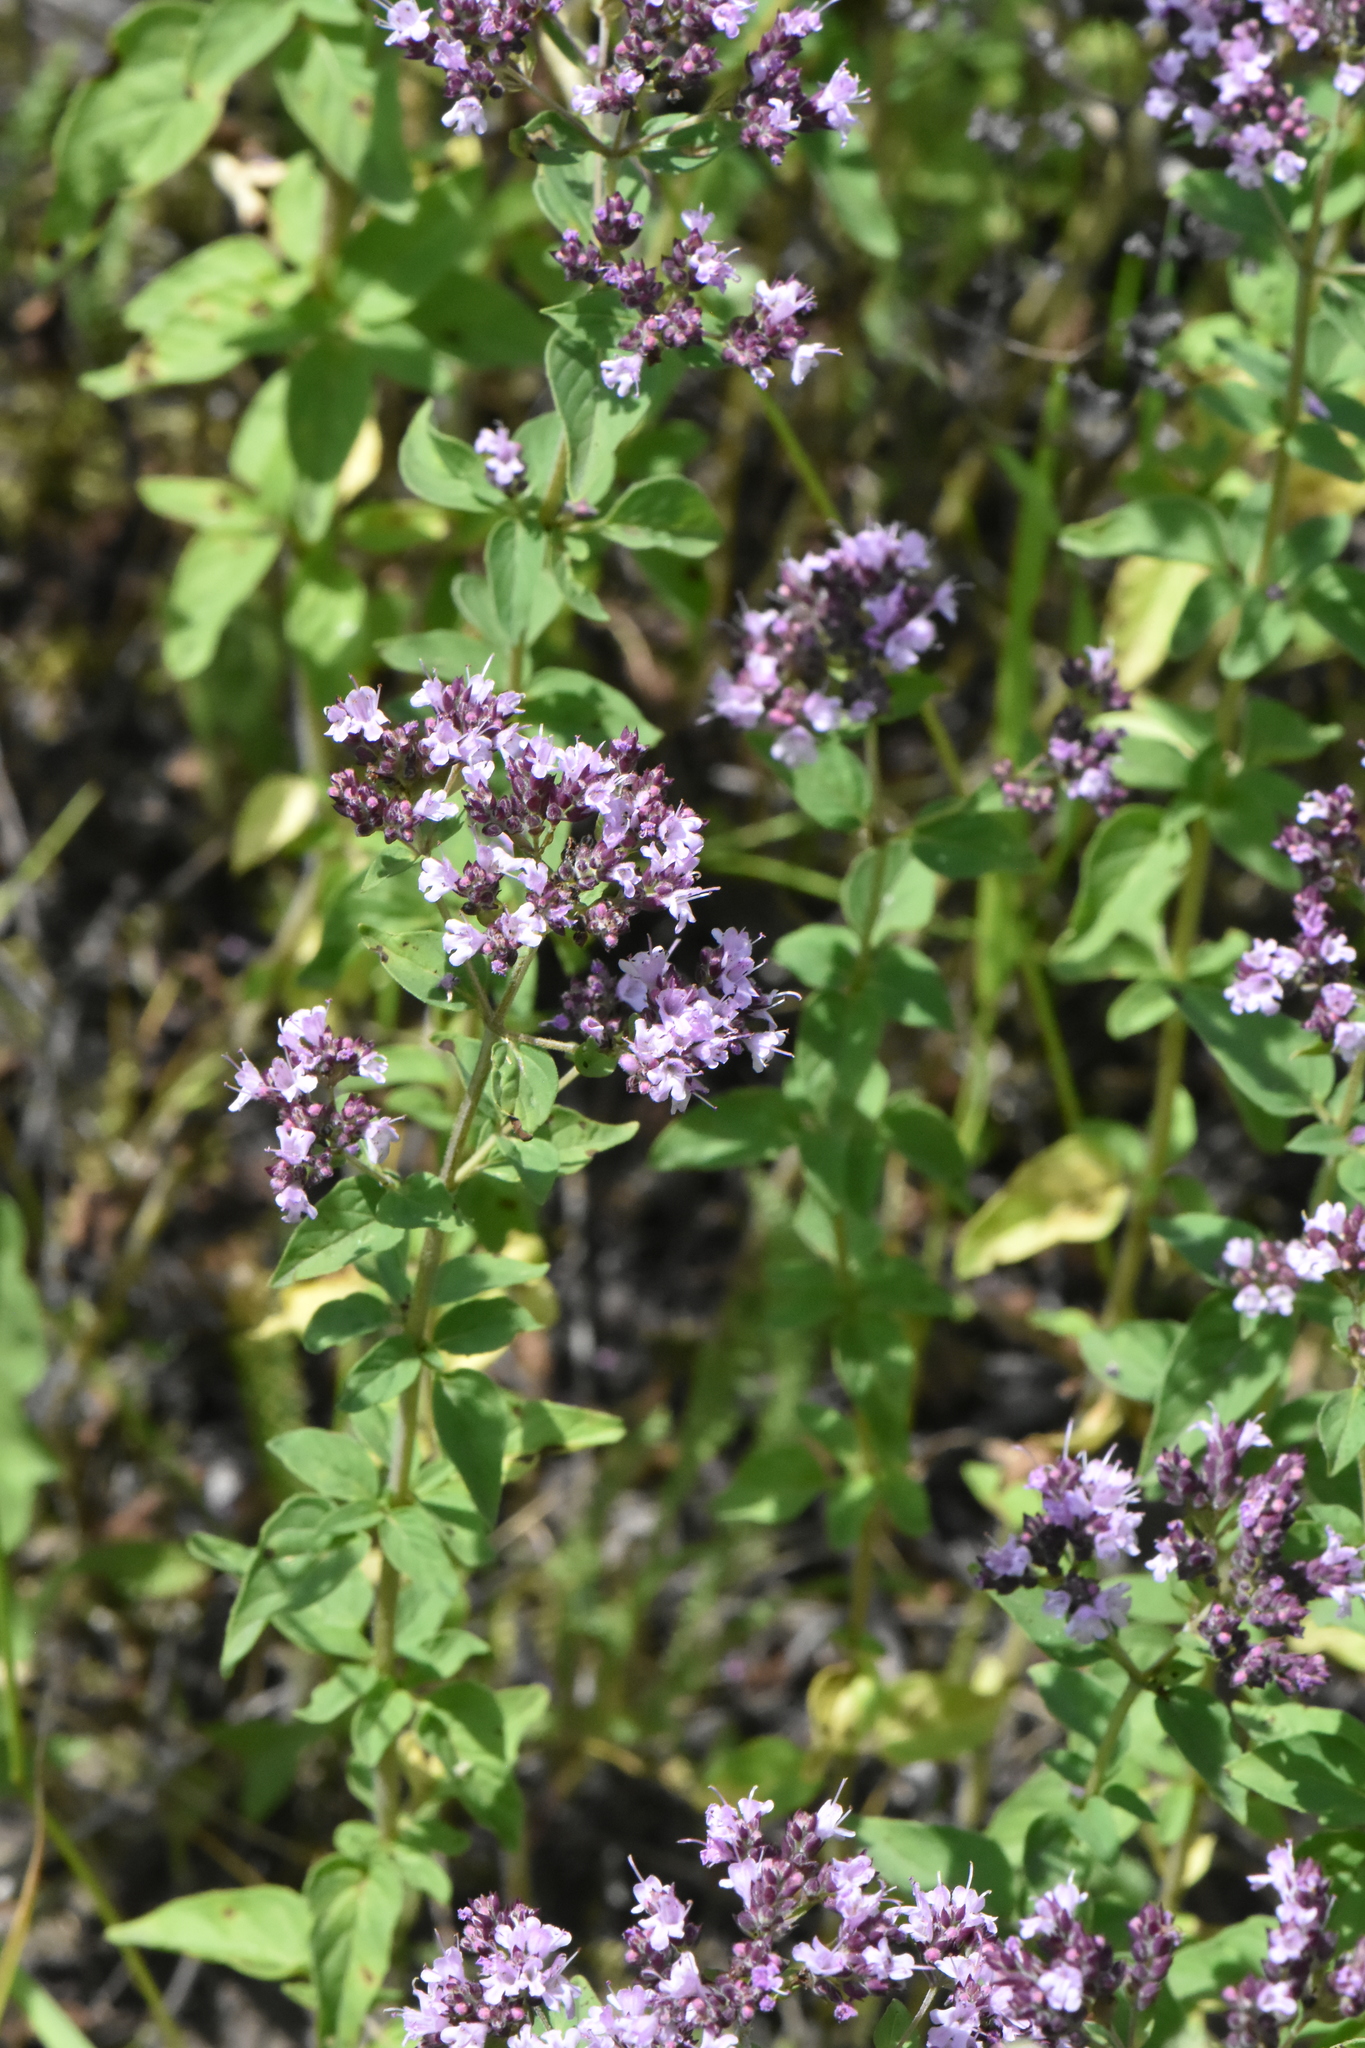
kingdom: Plantae
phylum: Tracheophyta
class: Magnoliopsida
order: Lamiales
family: Lamiaceae
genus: Origanum
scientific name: Origanum vulgare
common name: Wild marjoram
